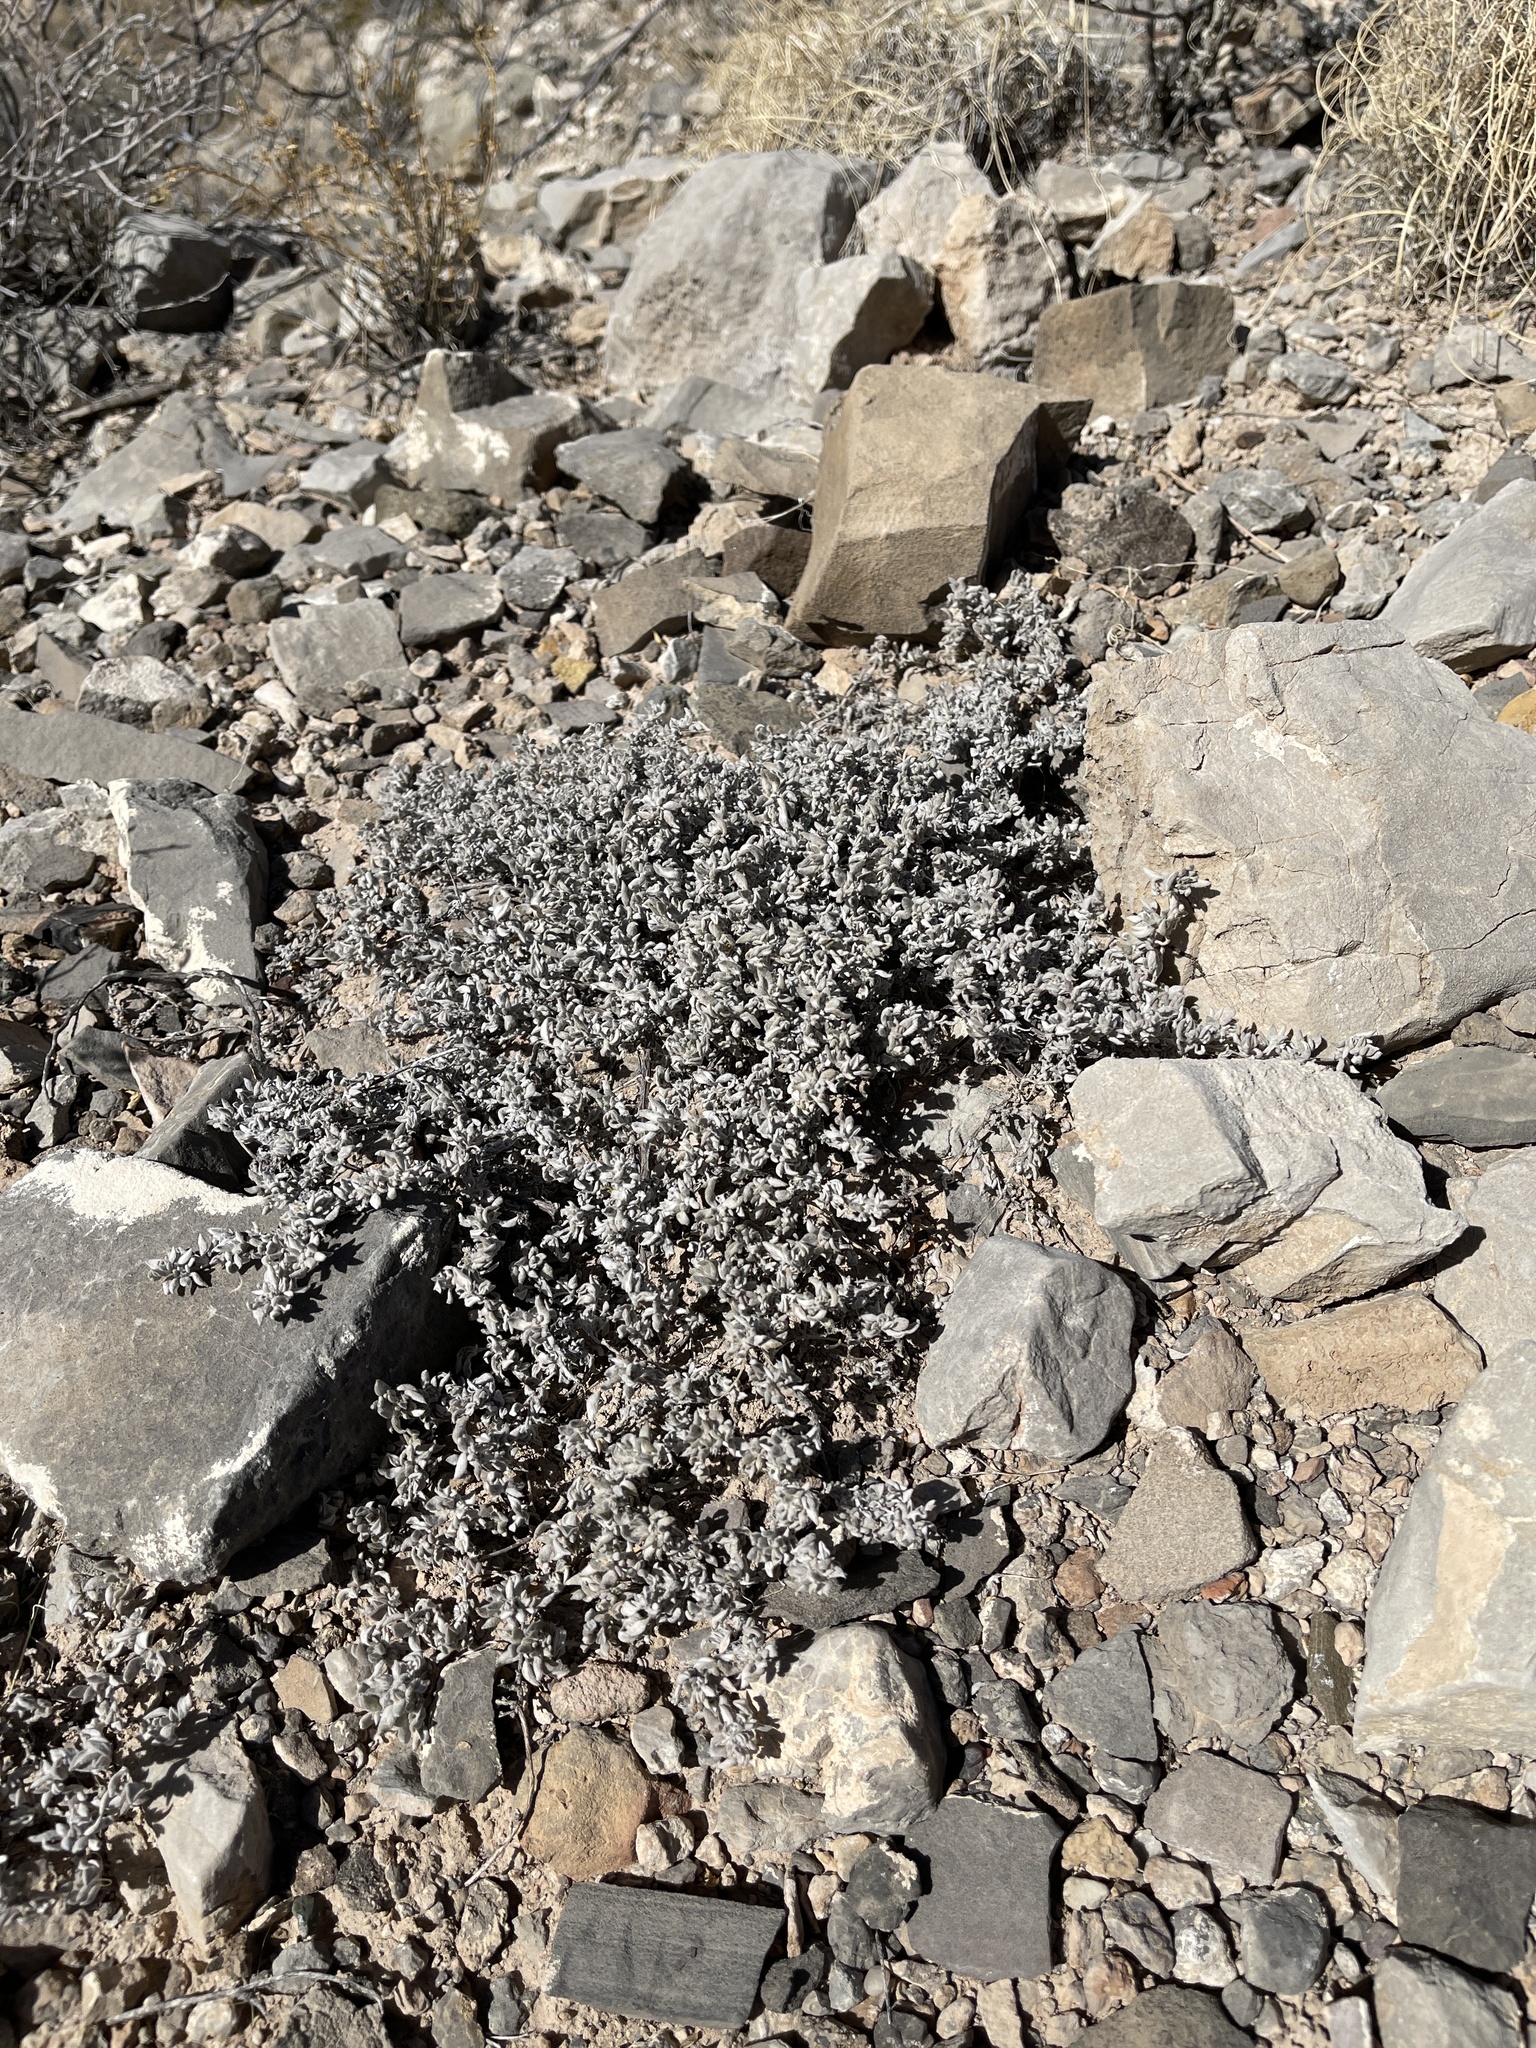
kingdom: Plantae
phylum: Tracheophyta
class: Magnoliopsida
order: Boraginales
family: Ehretiaceae
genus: Tiquilia
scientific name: Tiquilia canescens
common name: Hairy tiquilia
